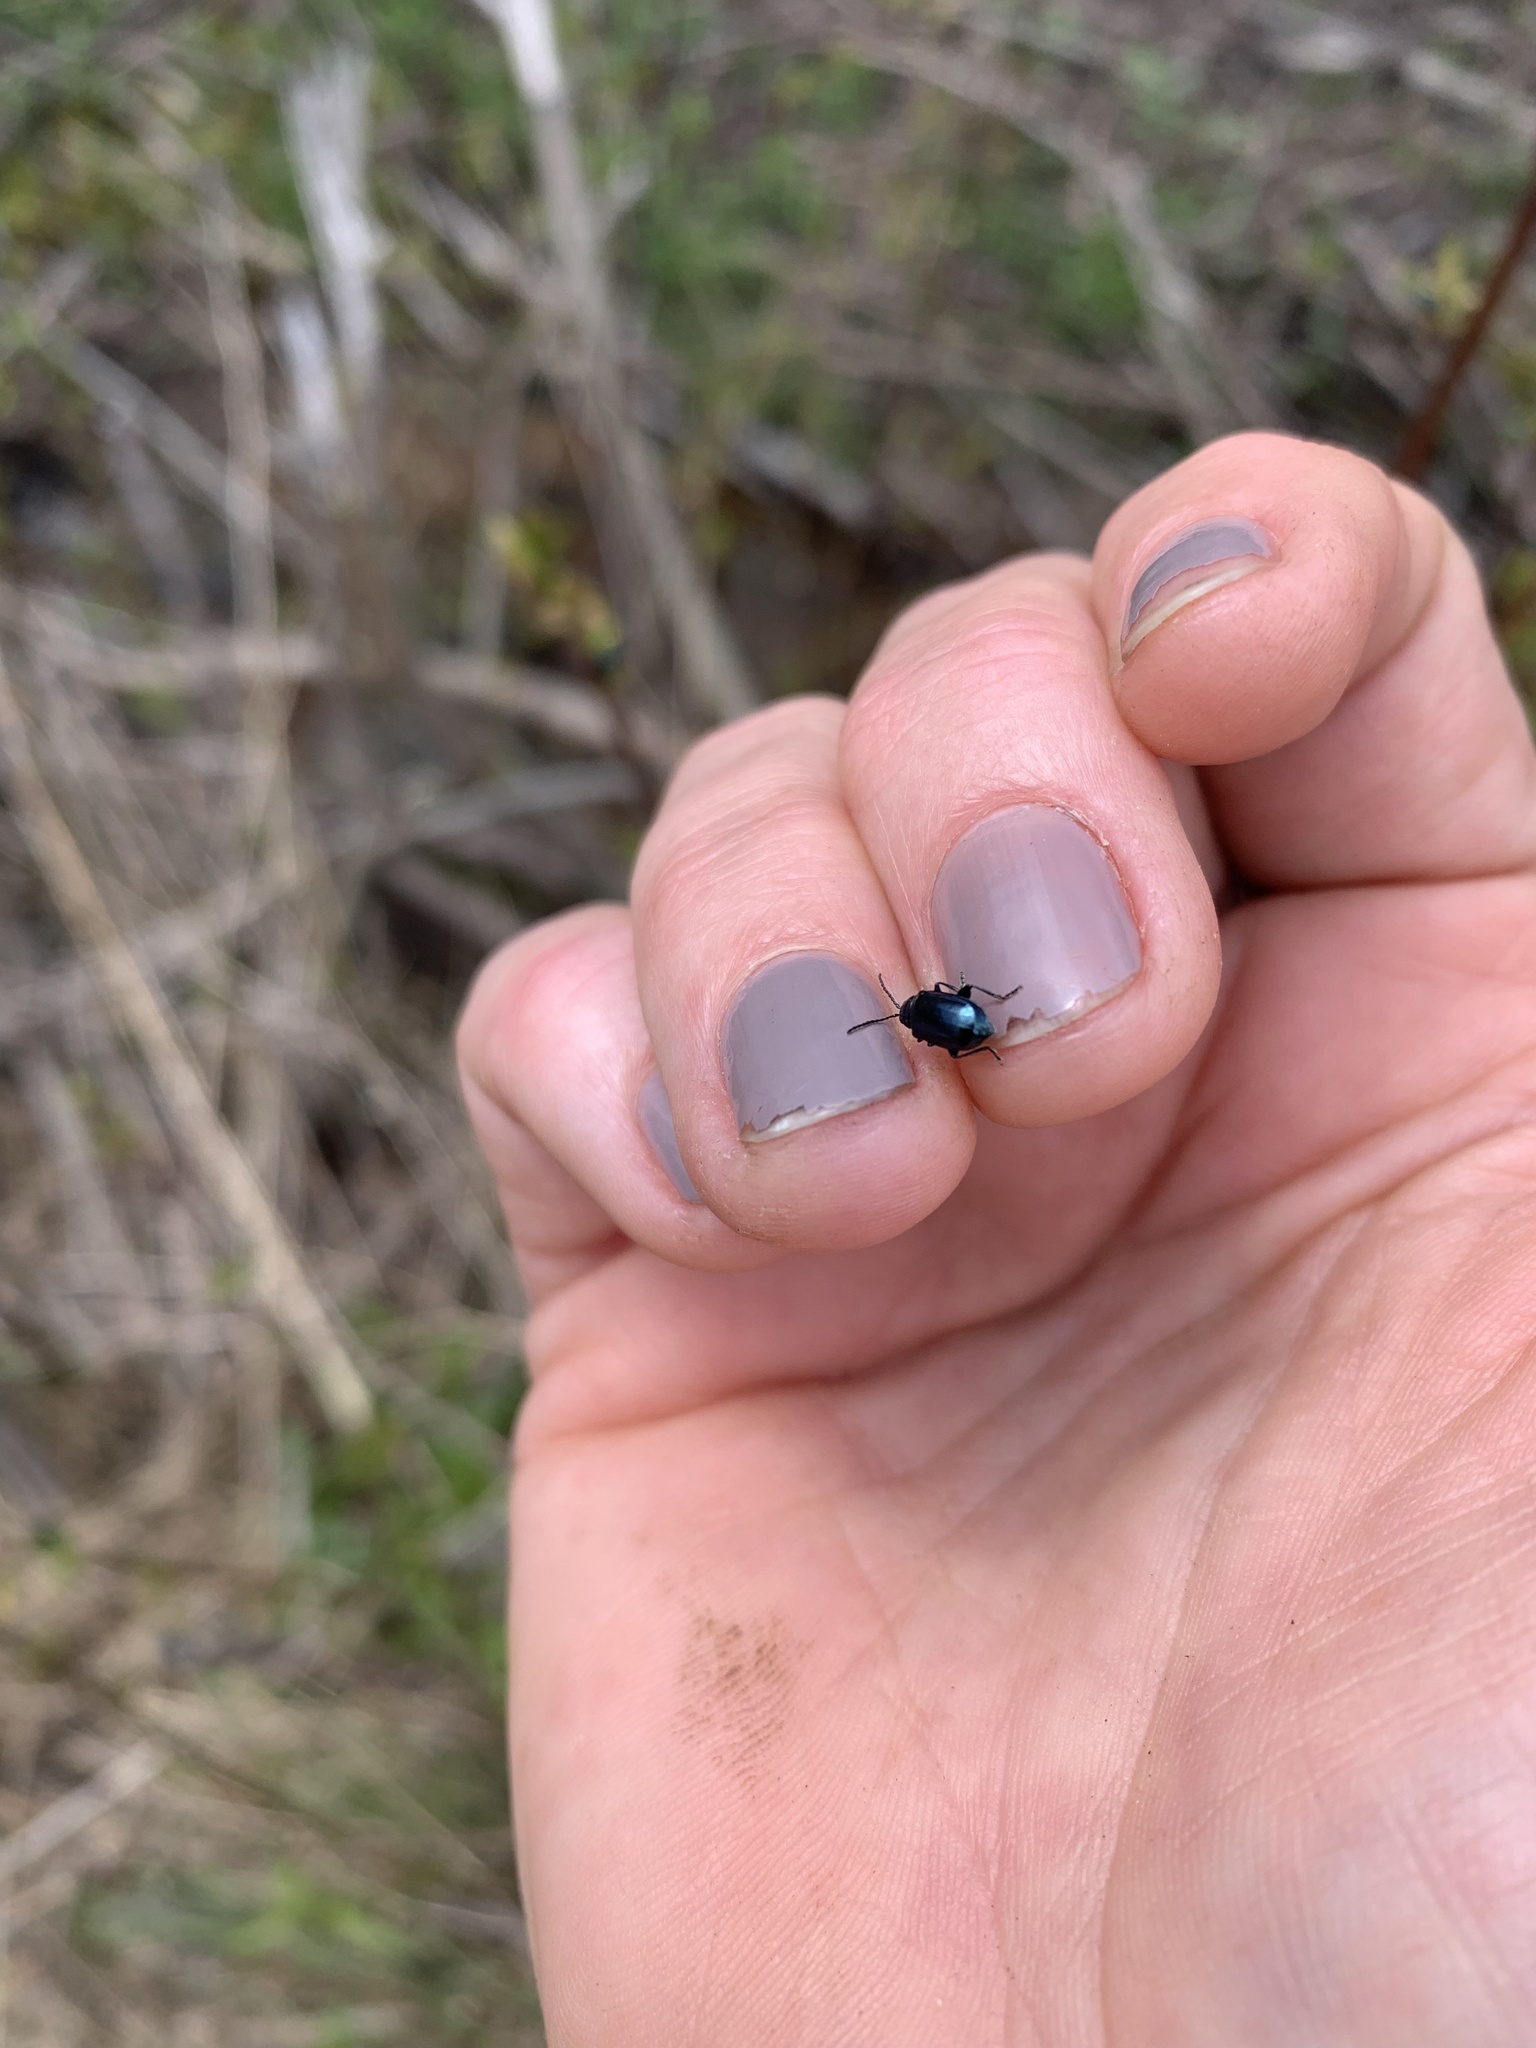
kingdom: Animalia
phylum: Arthropoda
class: Insecta
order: Coleoptera
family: Chrysomelidae
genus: Altica
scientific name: Altica ambiens
